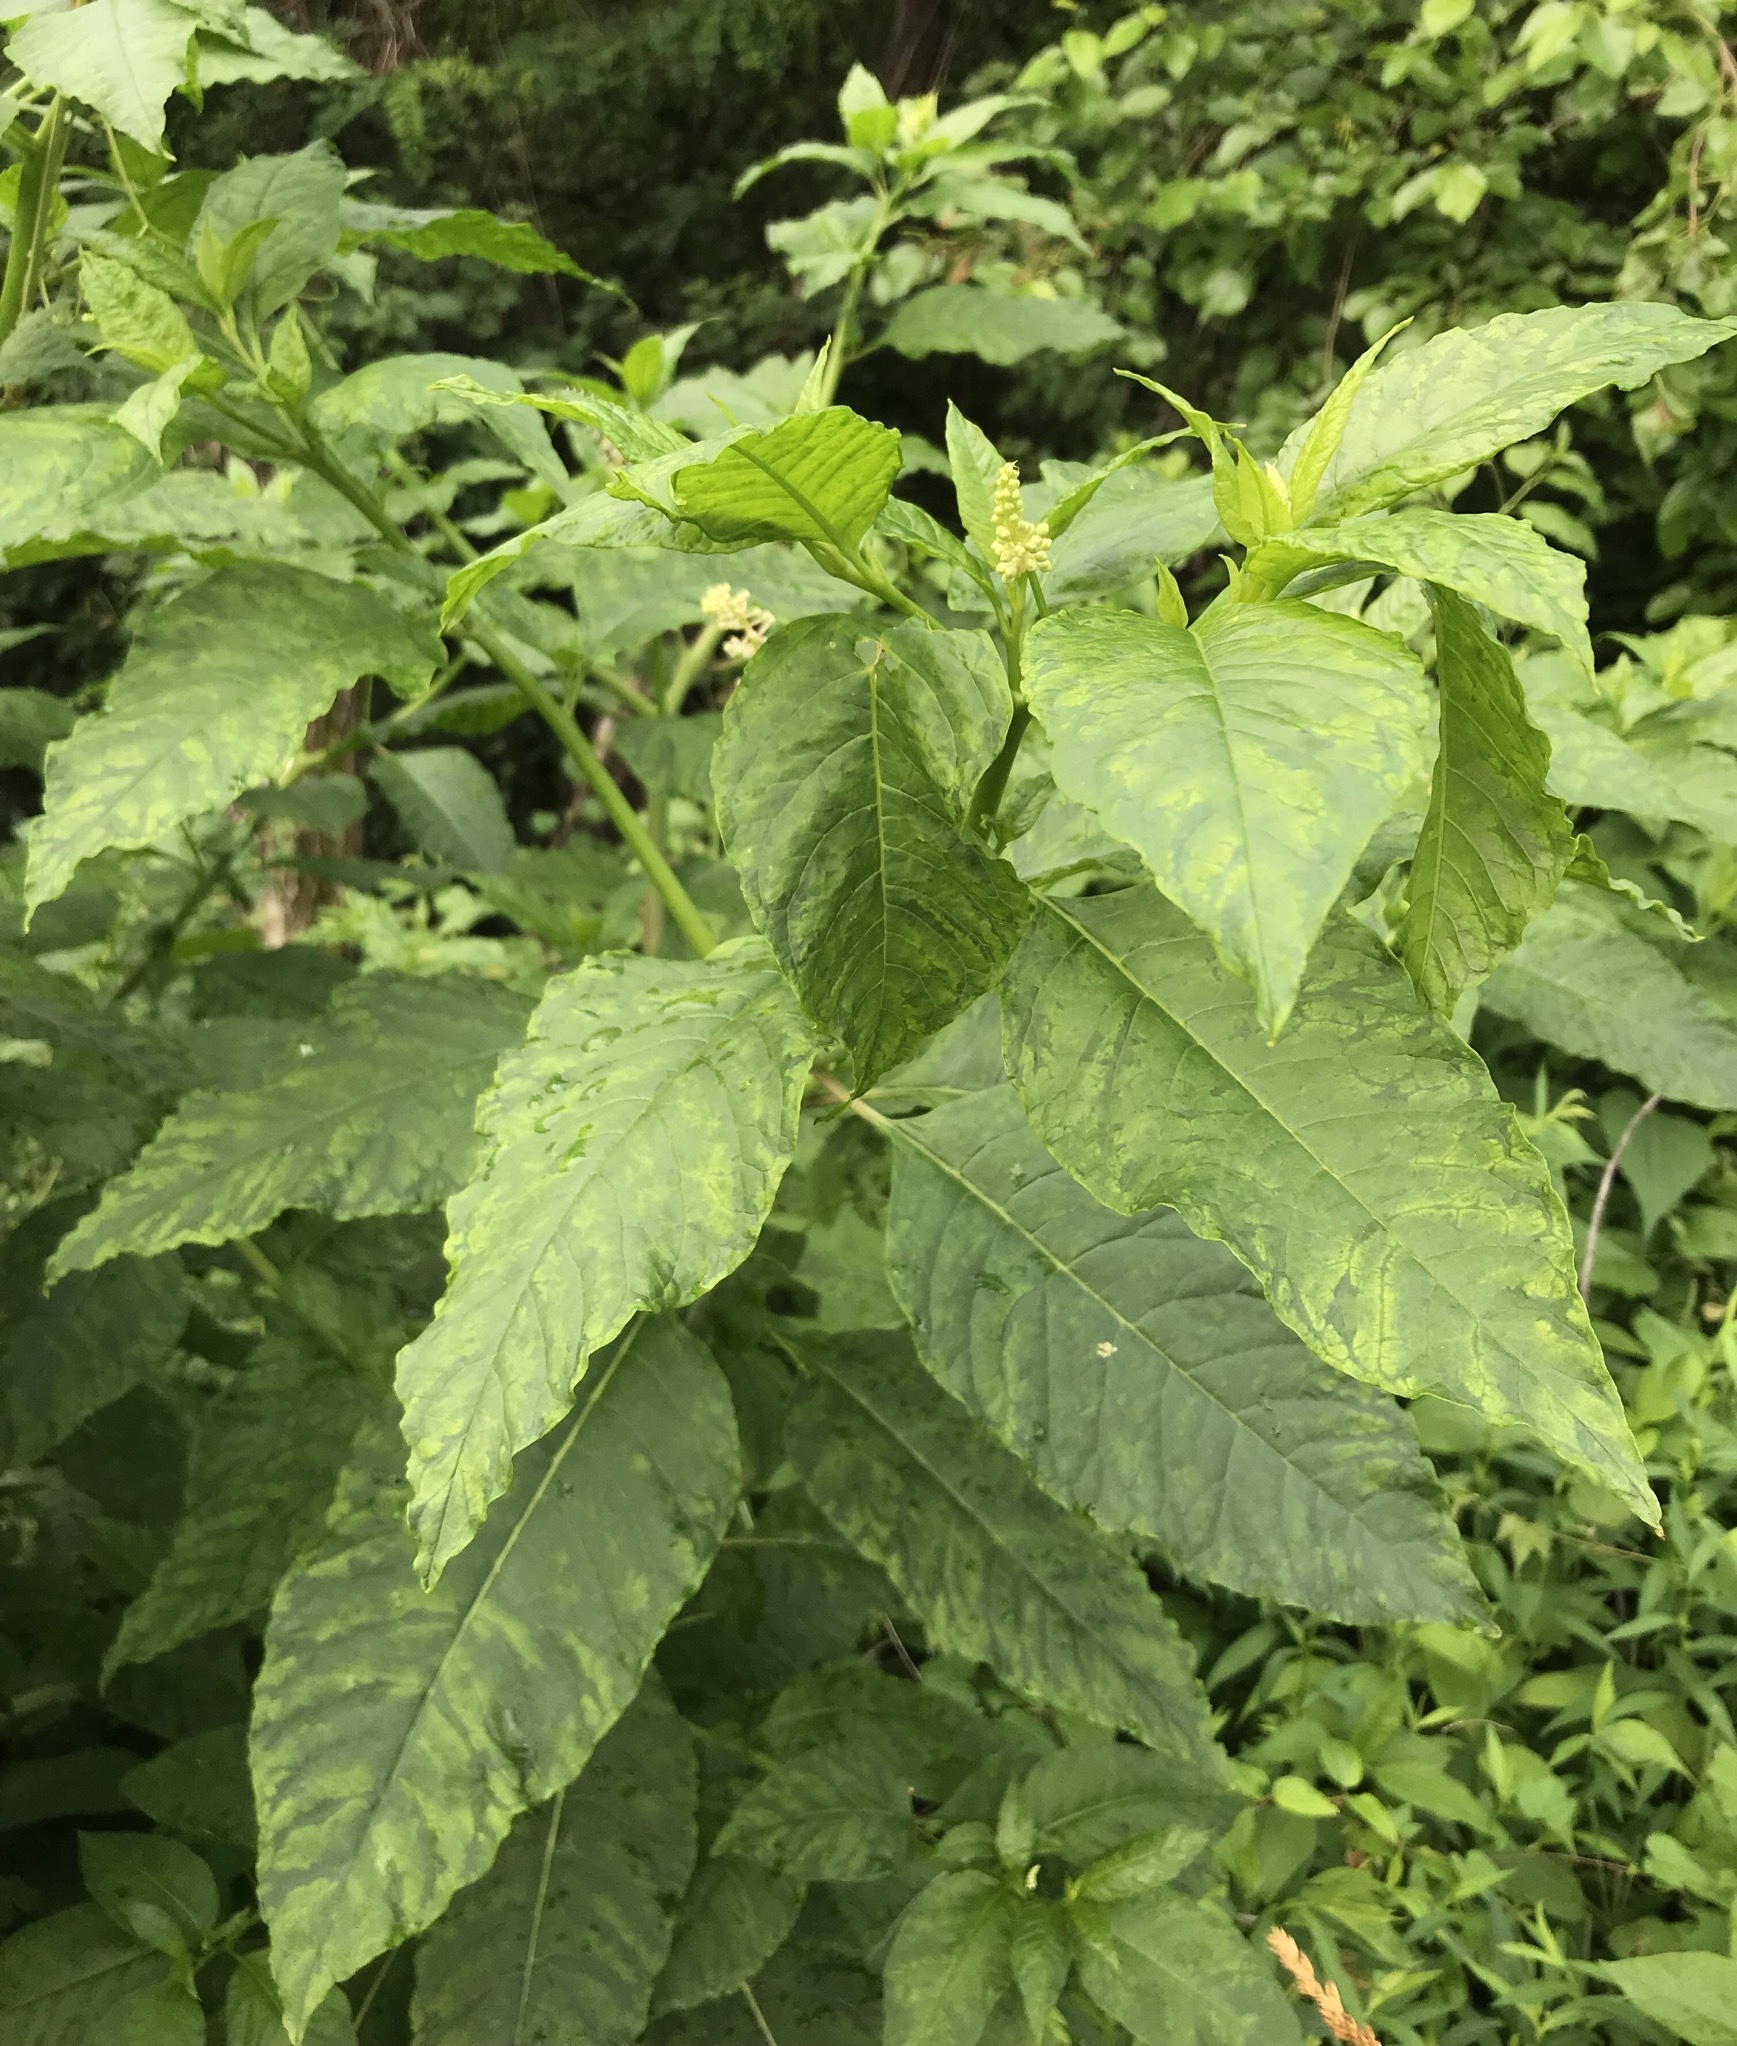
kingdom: Plantae
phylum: Tracheophyta
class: Magnoliopsida
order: Caryophyllales
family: Phytolaccaceae
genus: Phytolacca
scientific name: Phytolacca americana
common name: American pokeweed
